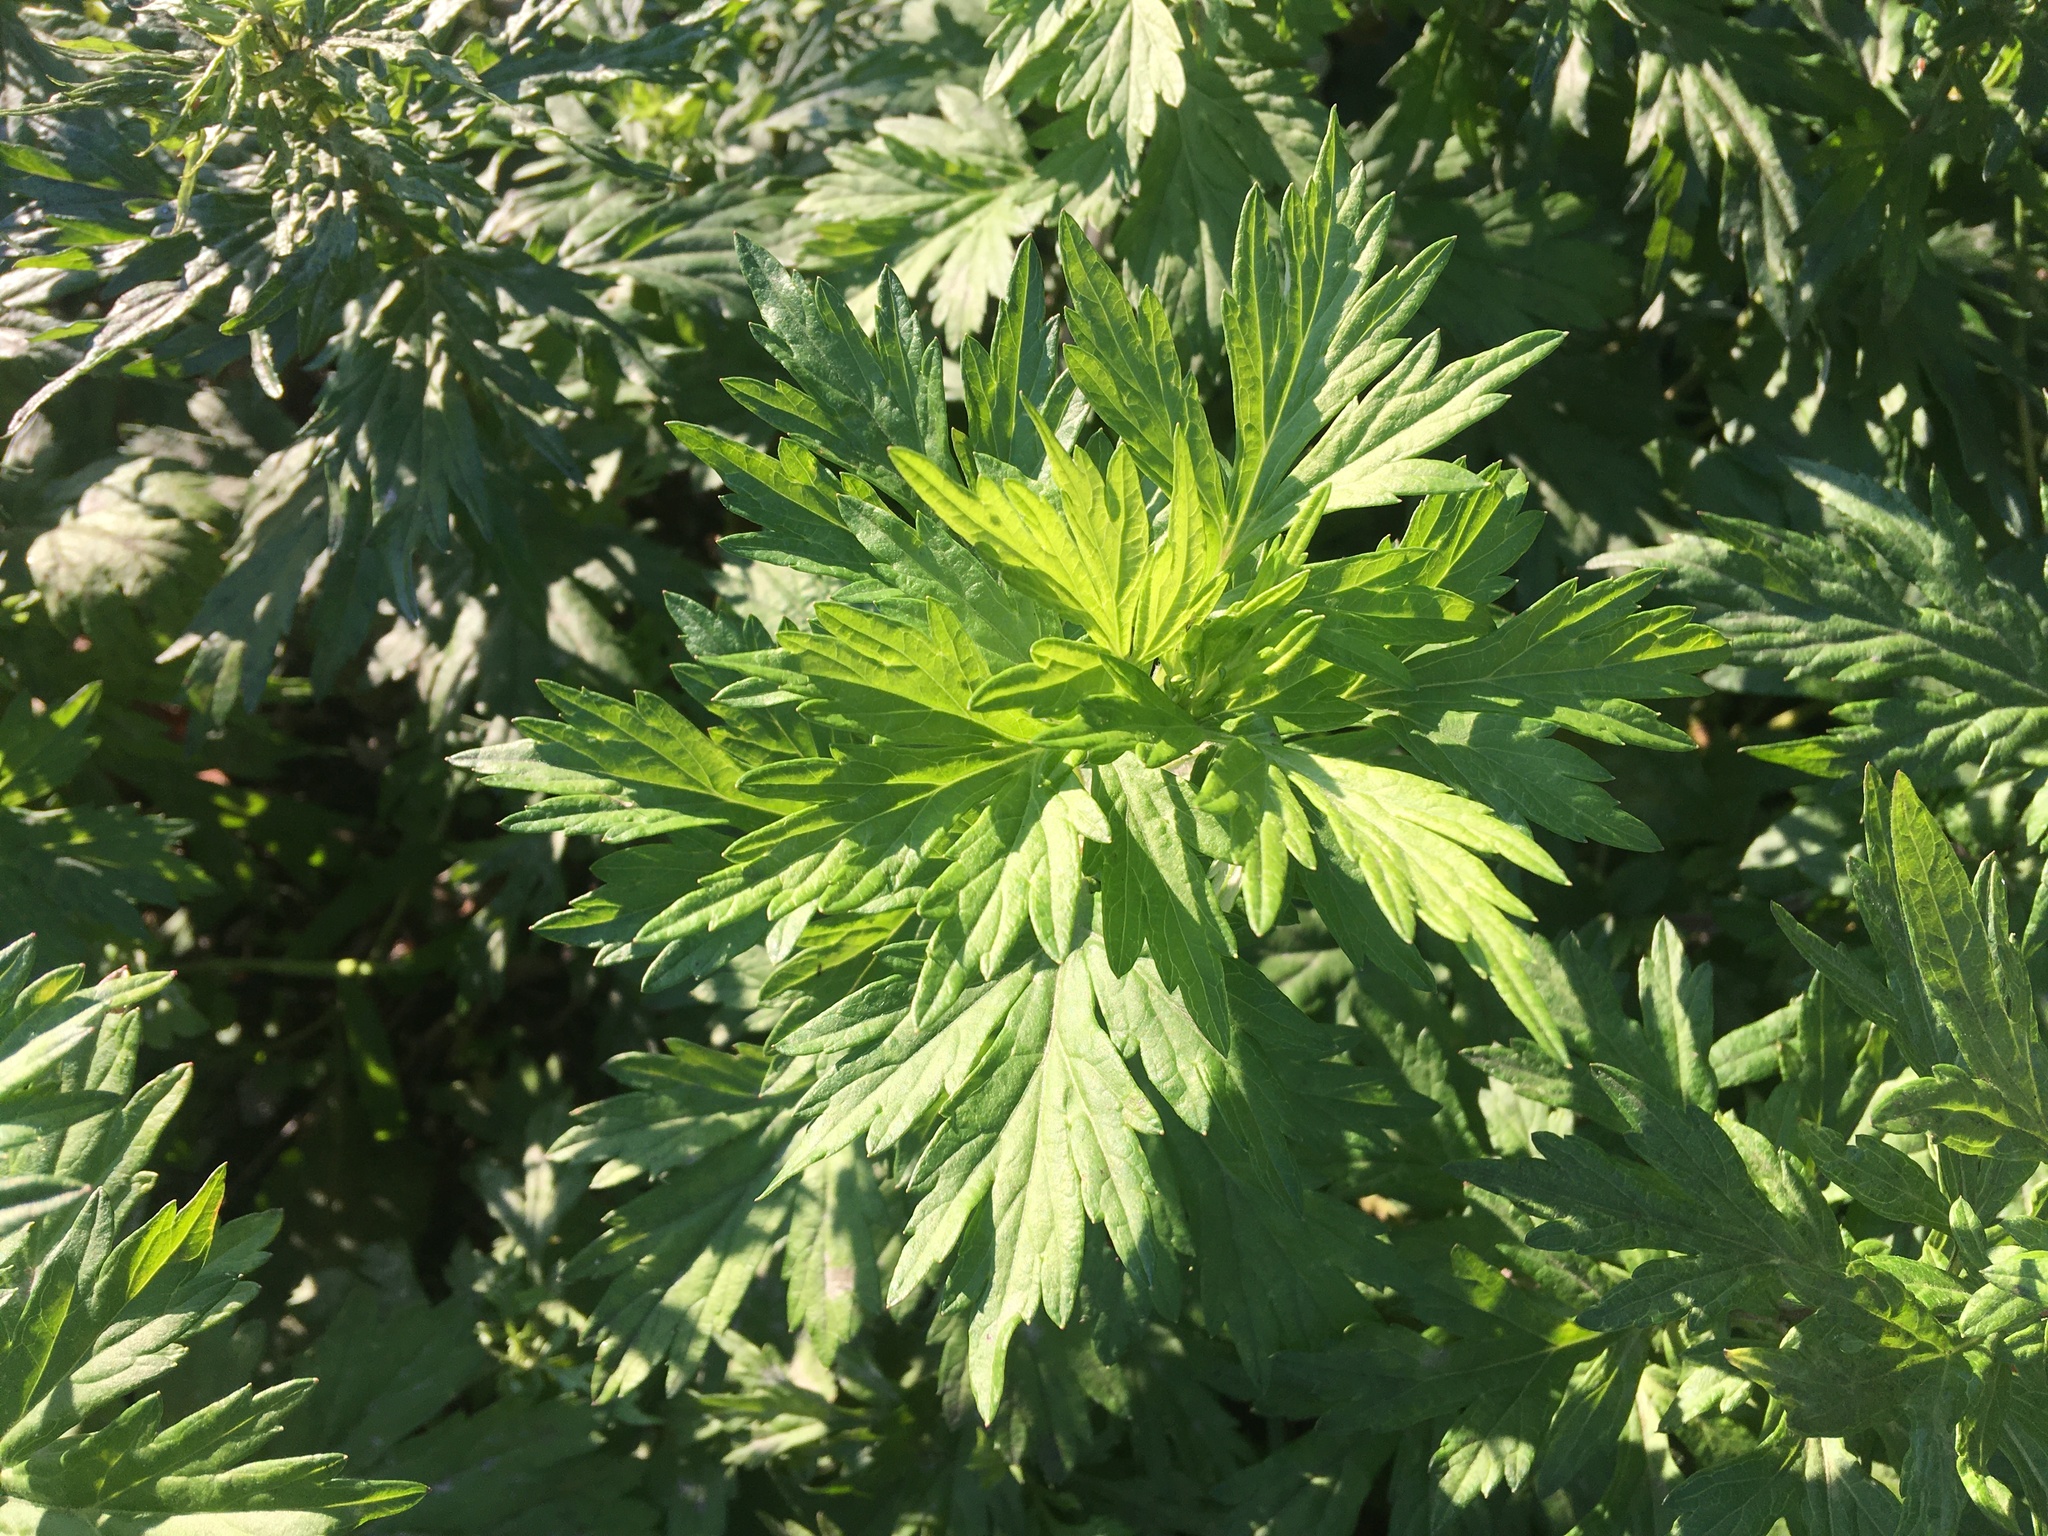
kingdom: Plantae
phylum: Tracheophyta
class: Magnoliopsida
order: Asterales
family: Asteraceae
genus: Artemisia
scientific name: Artemisia vulgaris
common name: Mugwort
